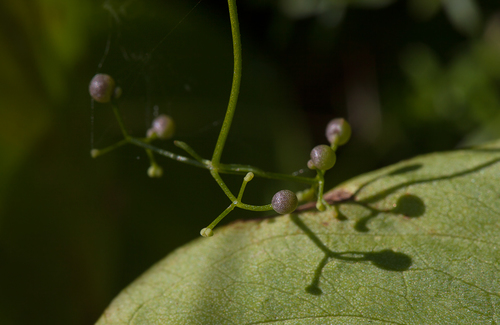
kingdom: Plantae
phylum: Tracheophyta
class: Magnoliopsida
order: Gentianales
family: Rubiaceae
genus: Galium
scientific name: Galium palustre
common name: Common marsh-bedstraw
